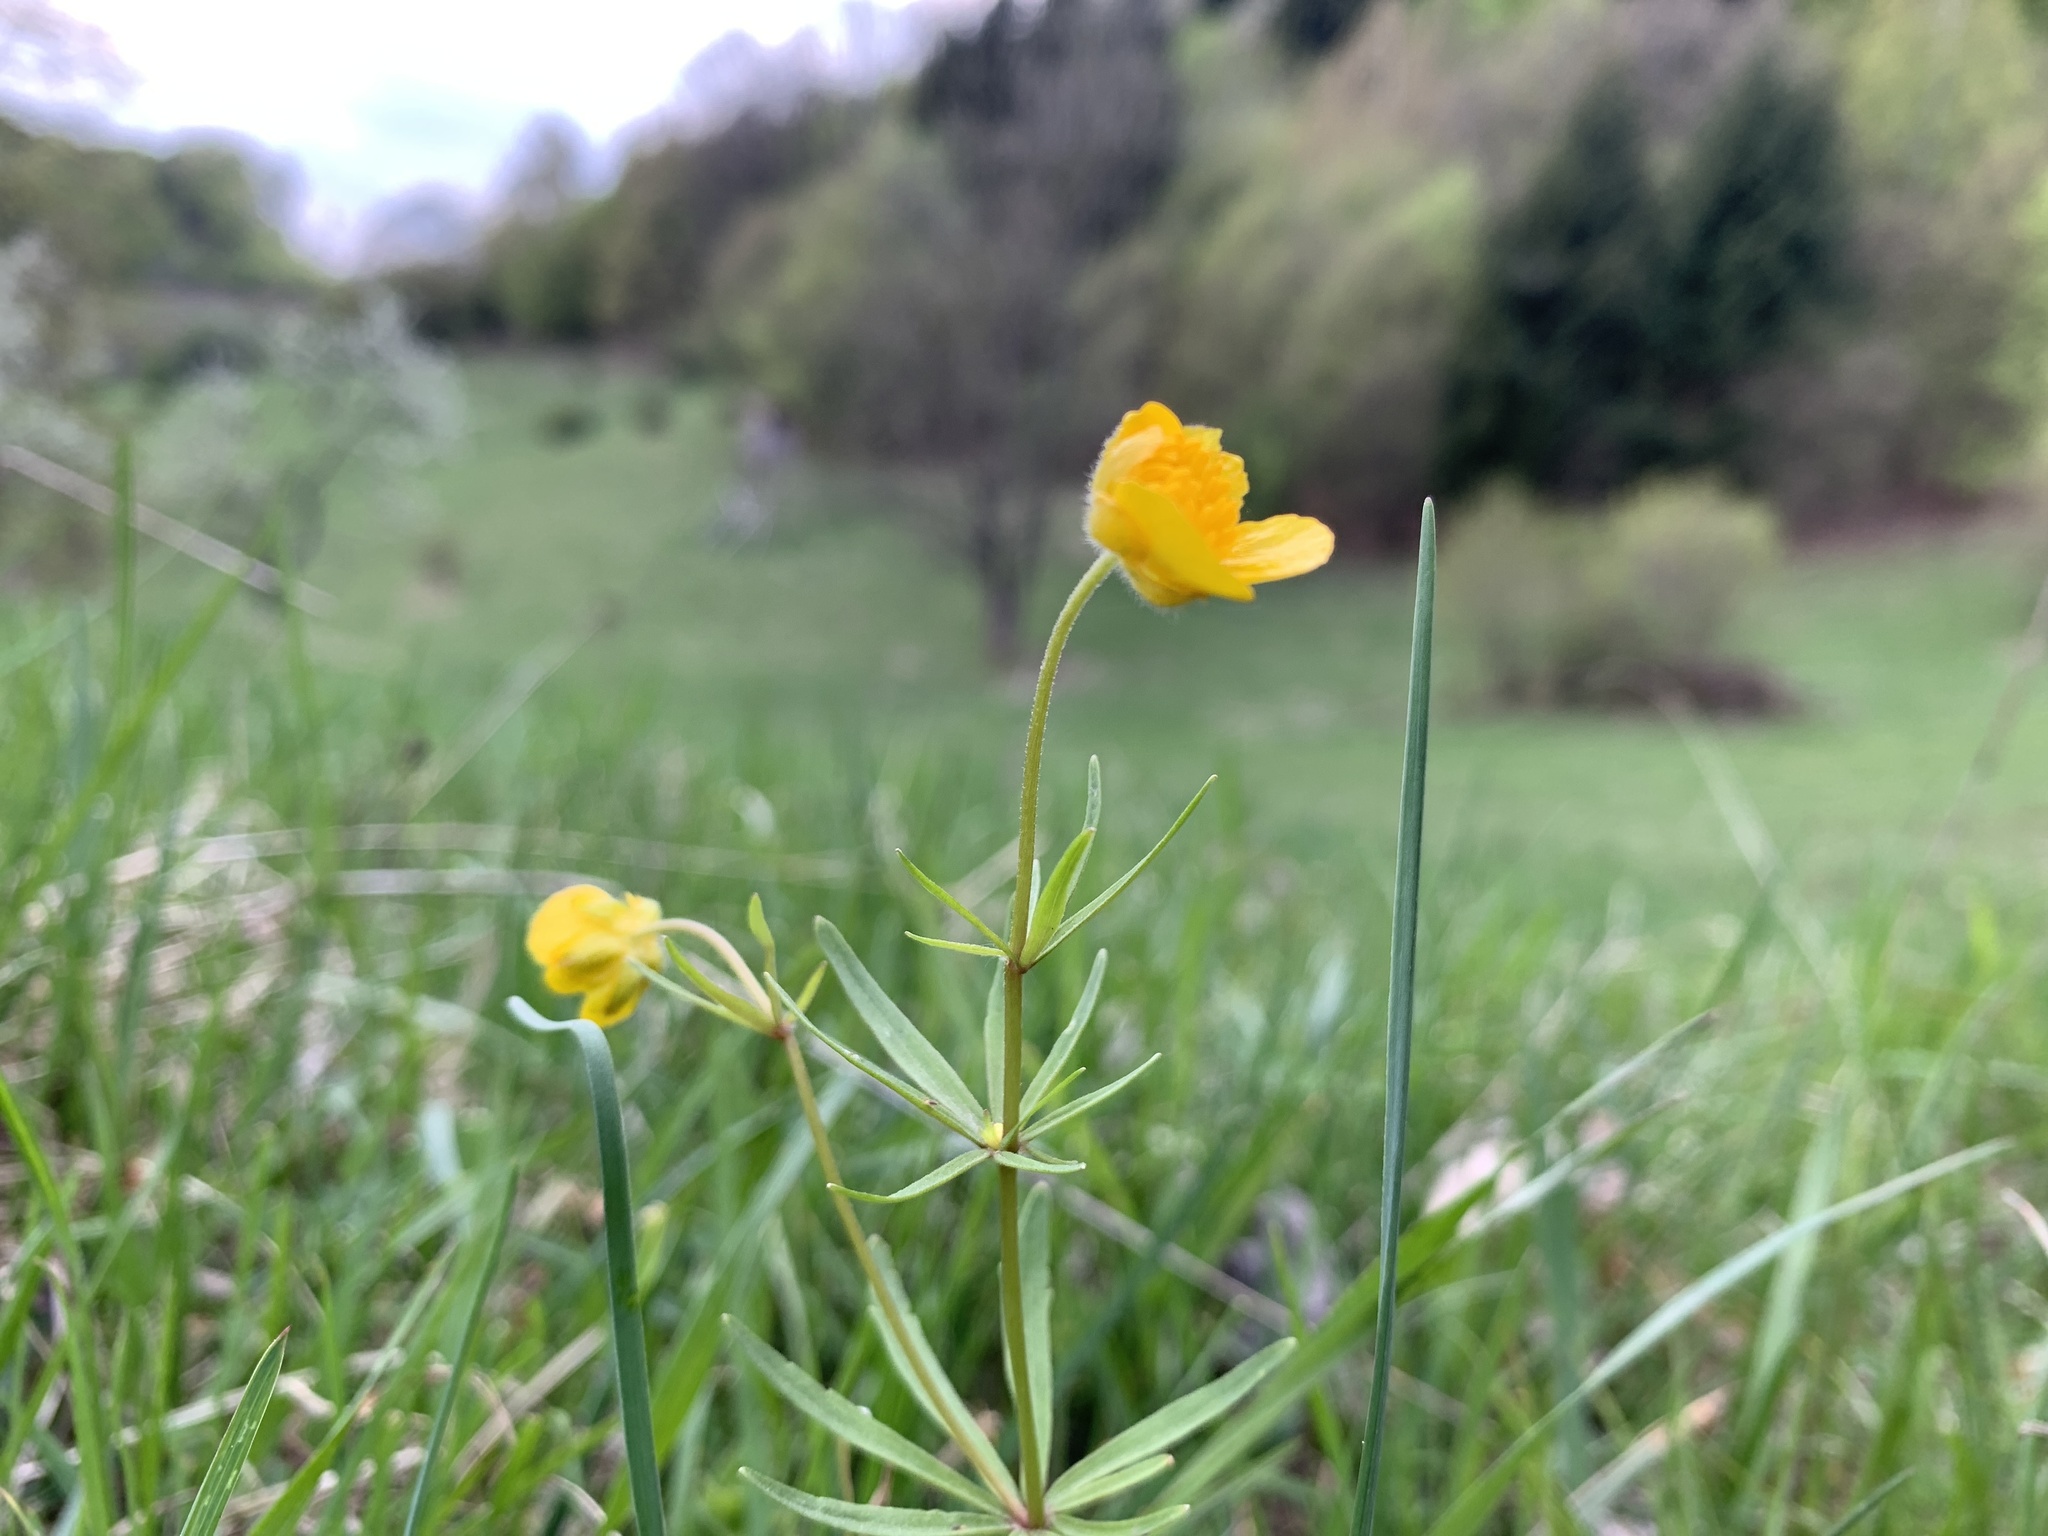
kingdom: Plantae
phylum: Tracheophyta
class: Magnoliopsida
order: Ranunculales
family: Ranunculaceae
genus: Ranunculus
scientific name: Ranunculus auricomus
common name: Goldilocks buttercup
